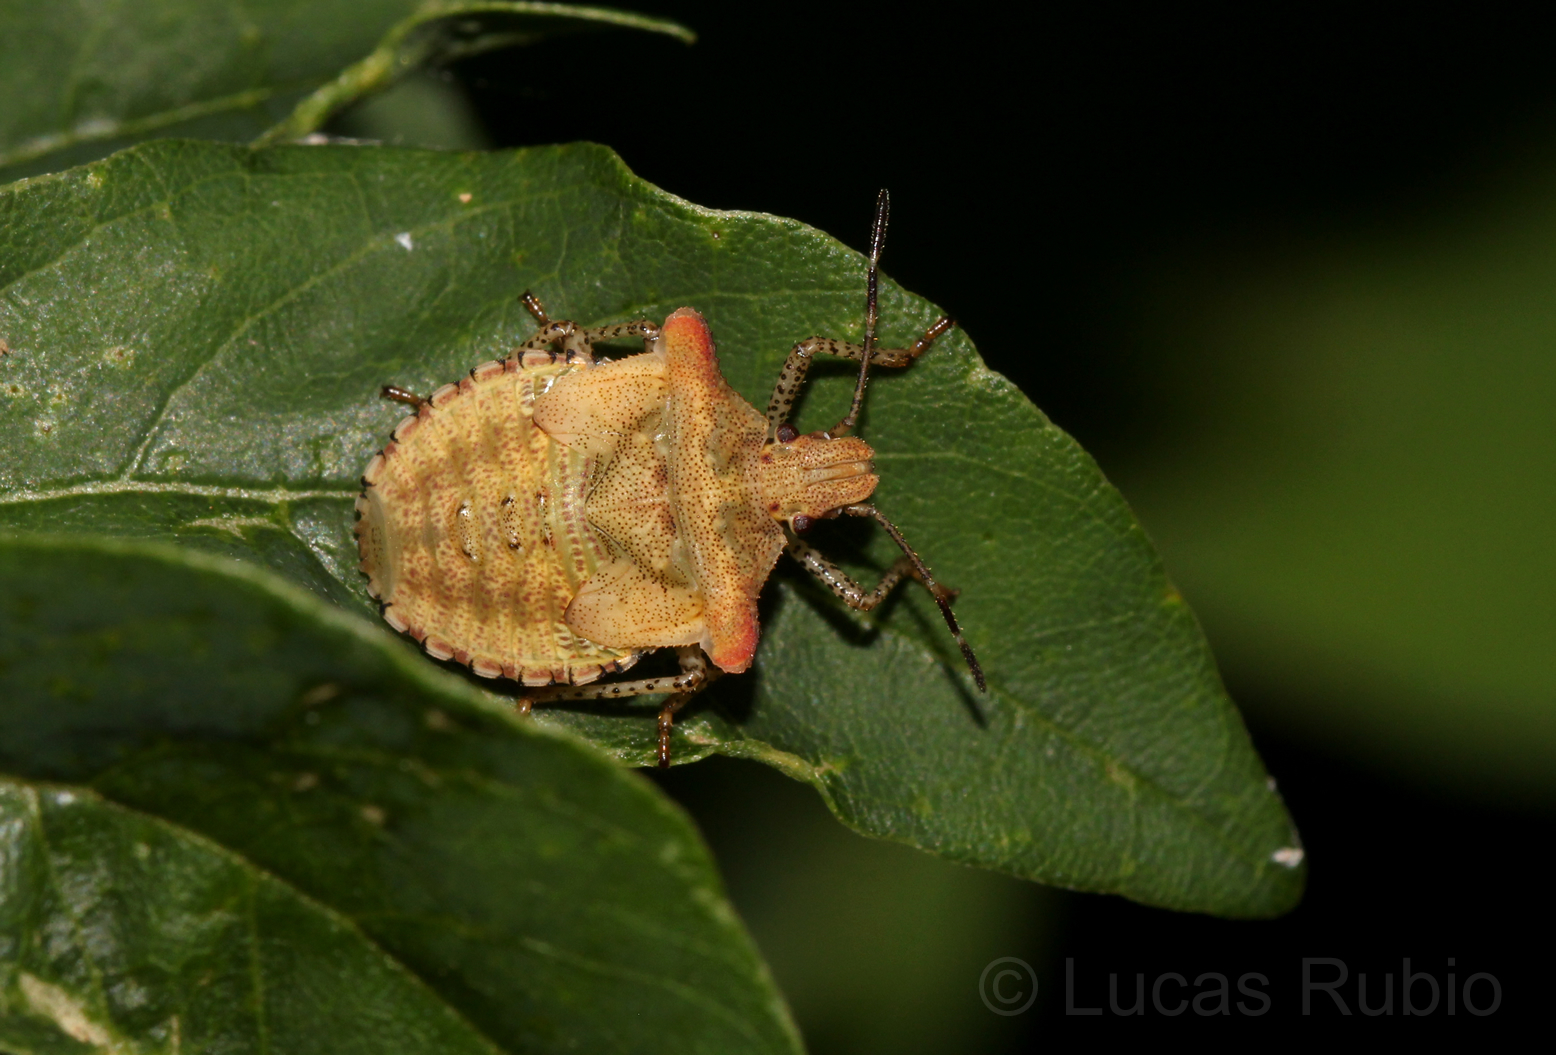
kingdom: Animalia
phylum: Arthropoda
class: Insecta
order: Hemiptera
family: Pentatomidae
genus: Euschistus
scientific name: Euschistus cornutus
